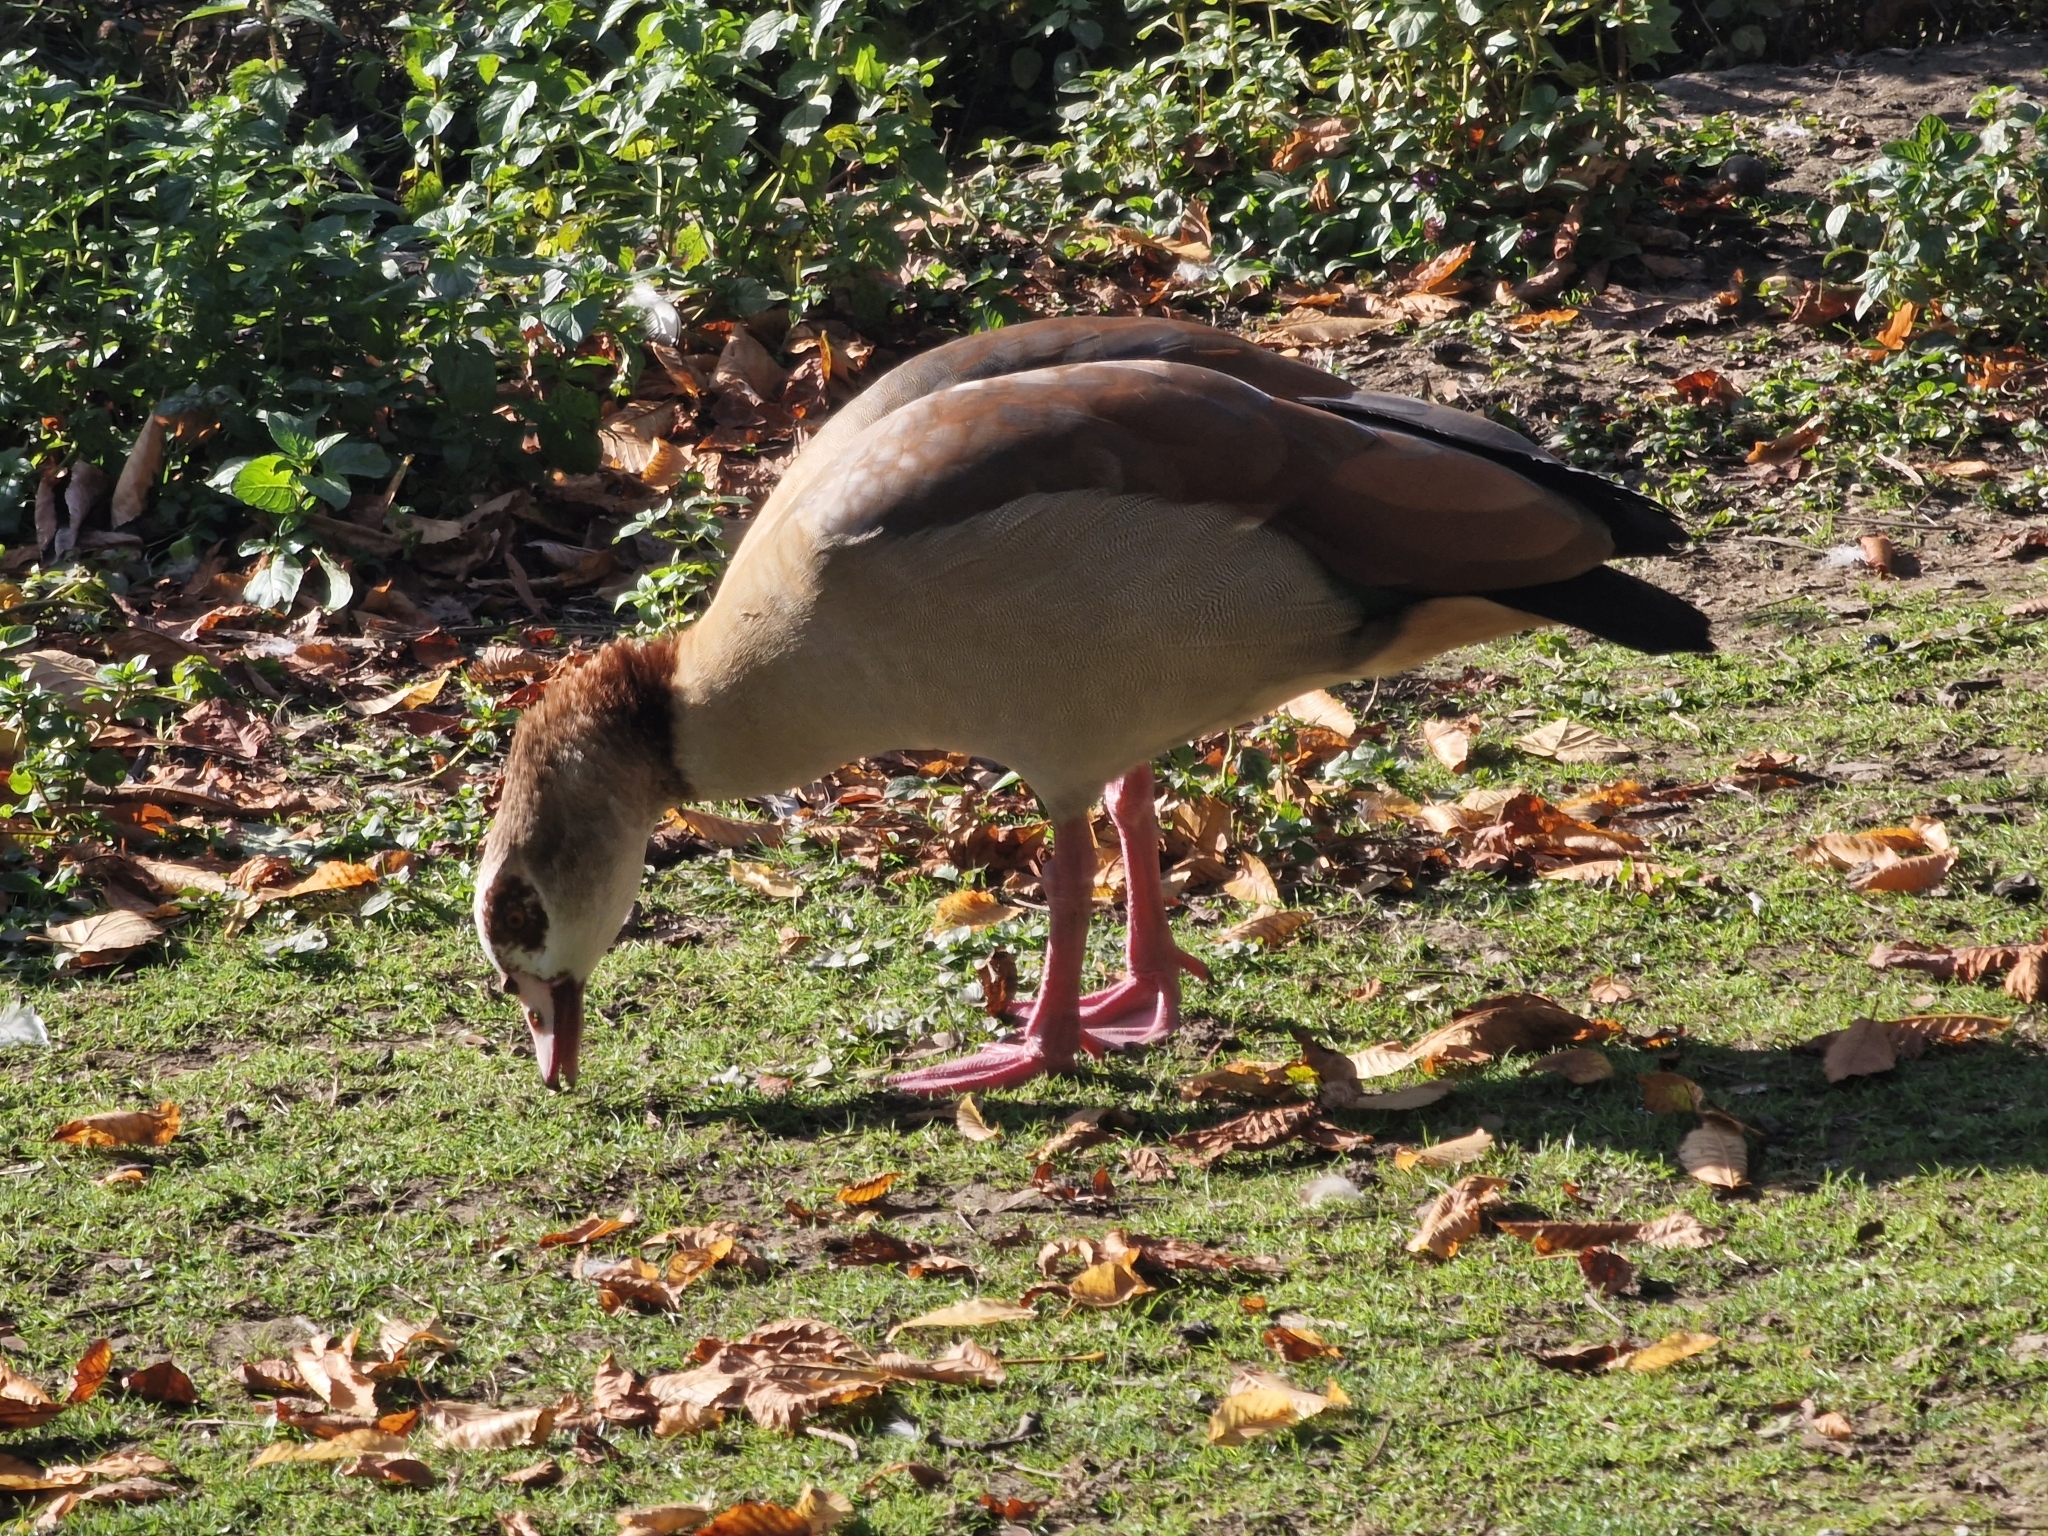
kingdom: Animalia
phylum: Chordata
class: Aves
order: Anseriformes
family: Anatidae
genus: Alopochen
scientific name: Alopochen aegyptiaca
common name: Egyptian goose
